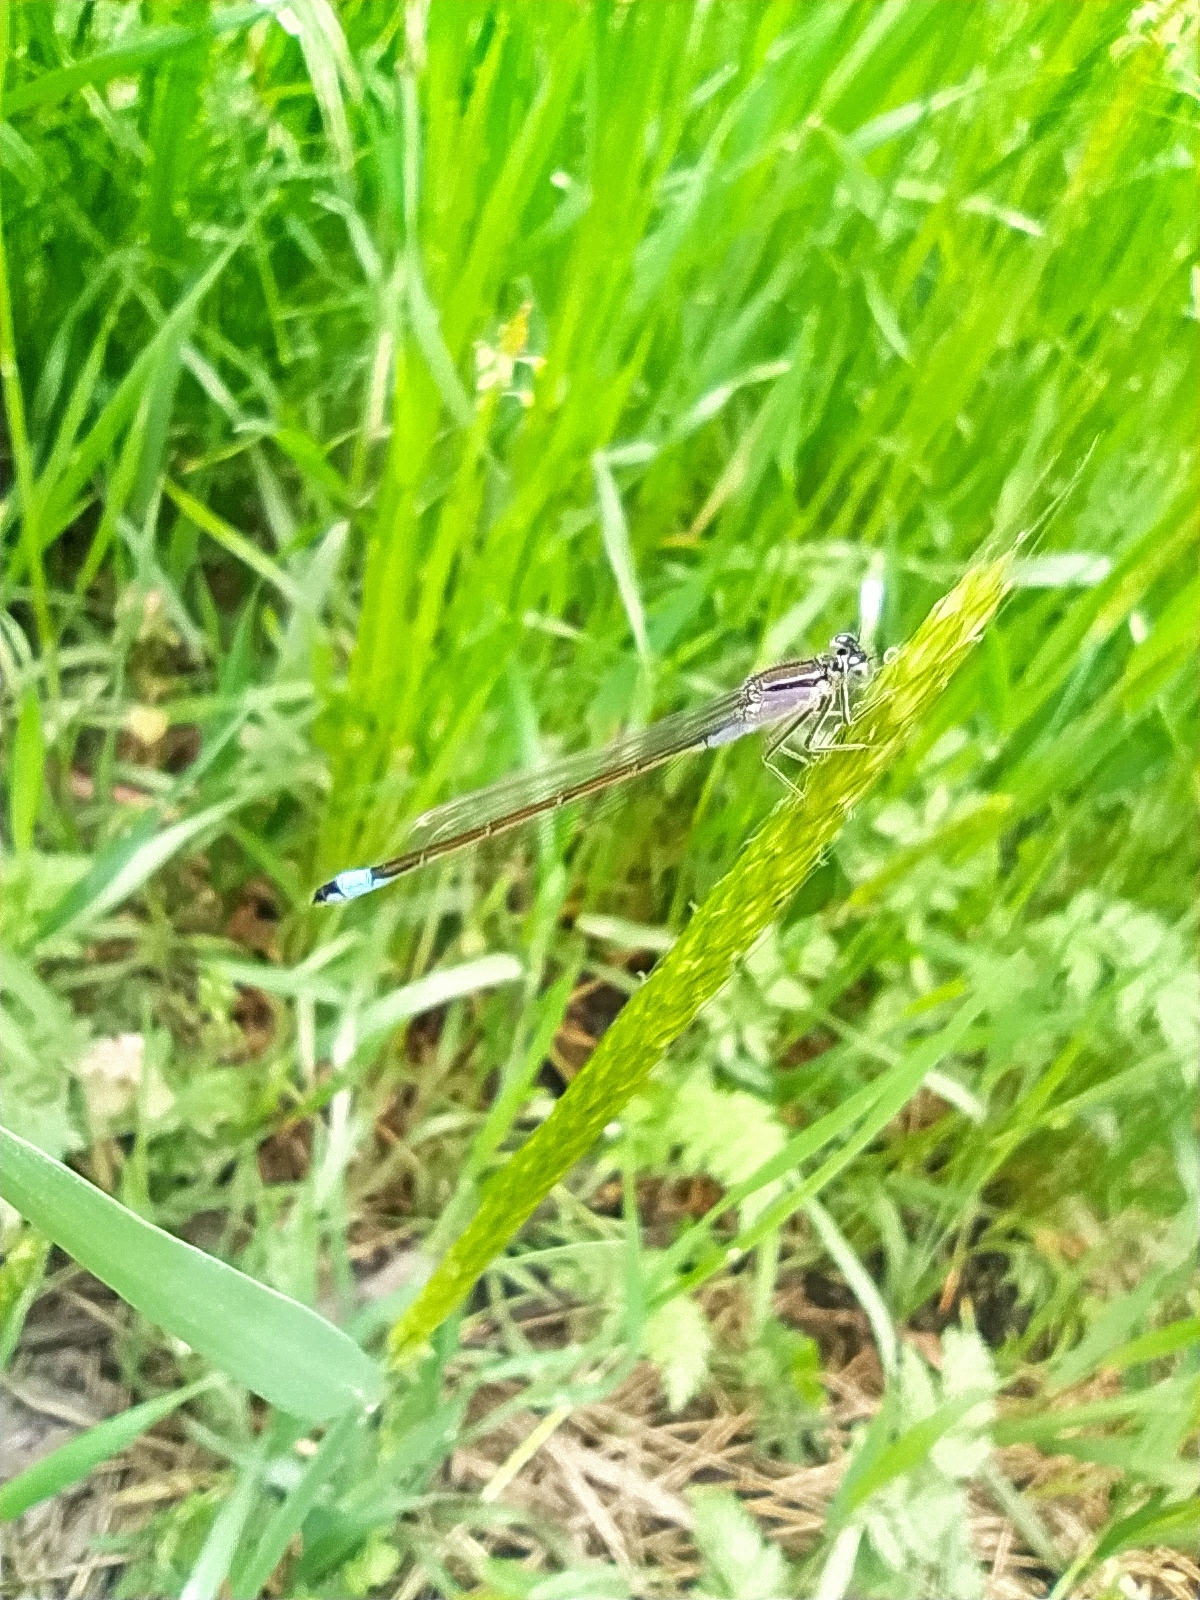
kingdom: Animalia
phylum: Arthropoda
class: Insecta
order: Odonata
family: Coenagrionidae
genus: Ischnura
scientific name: Ischnura elegans
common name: Blue-tailed damselfly
